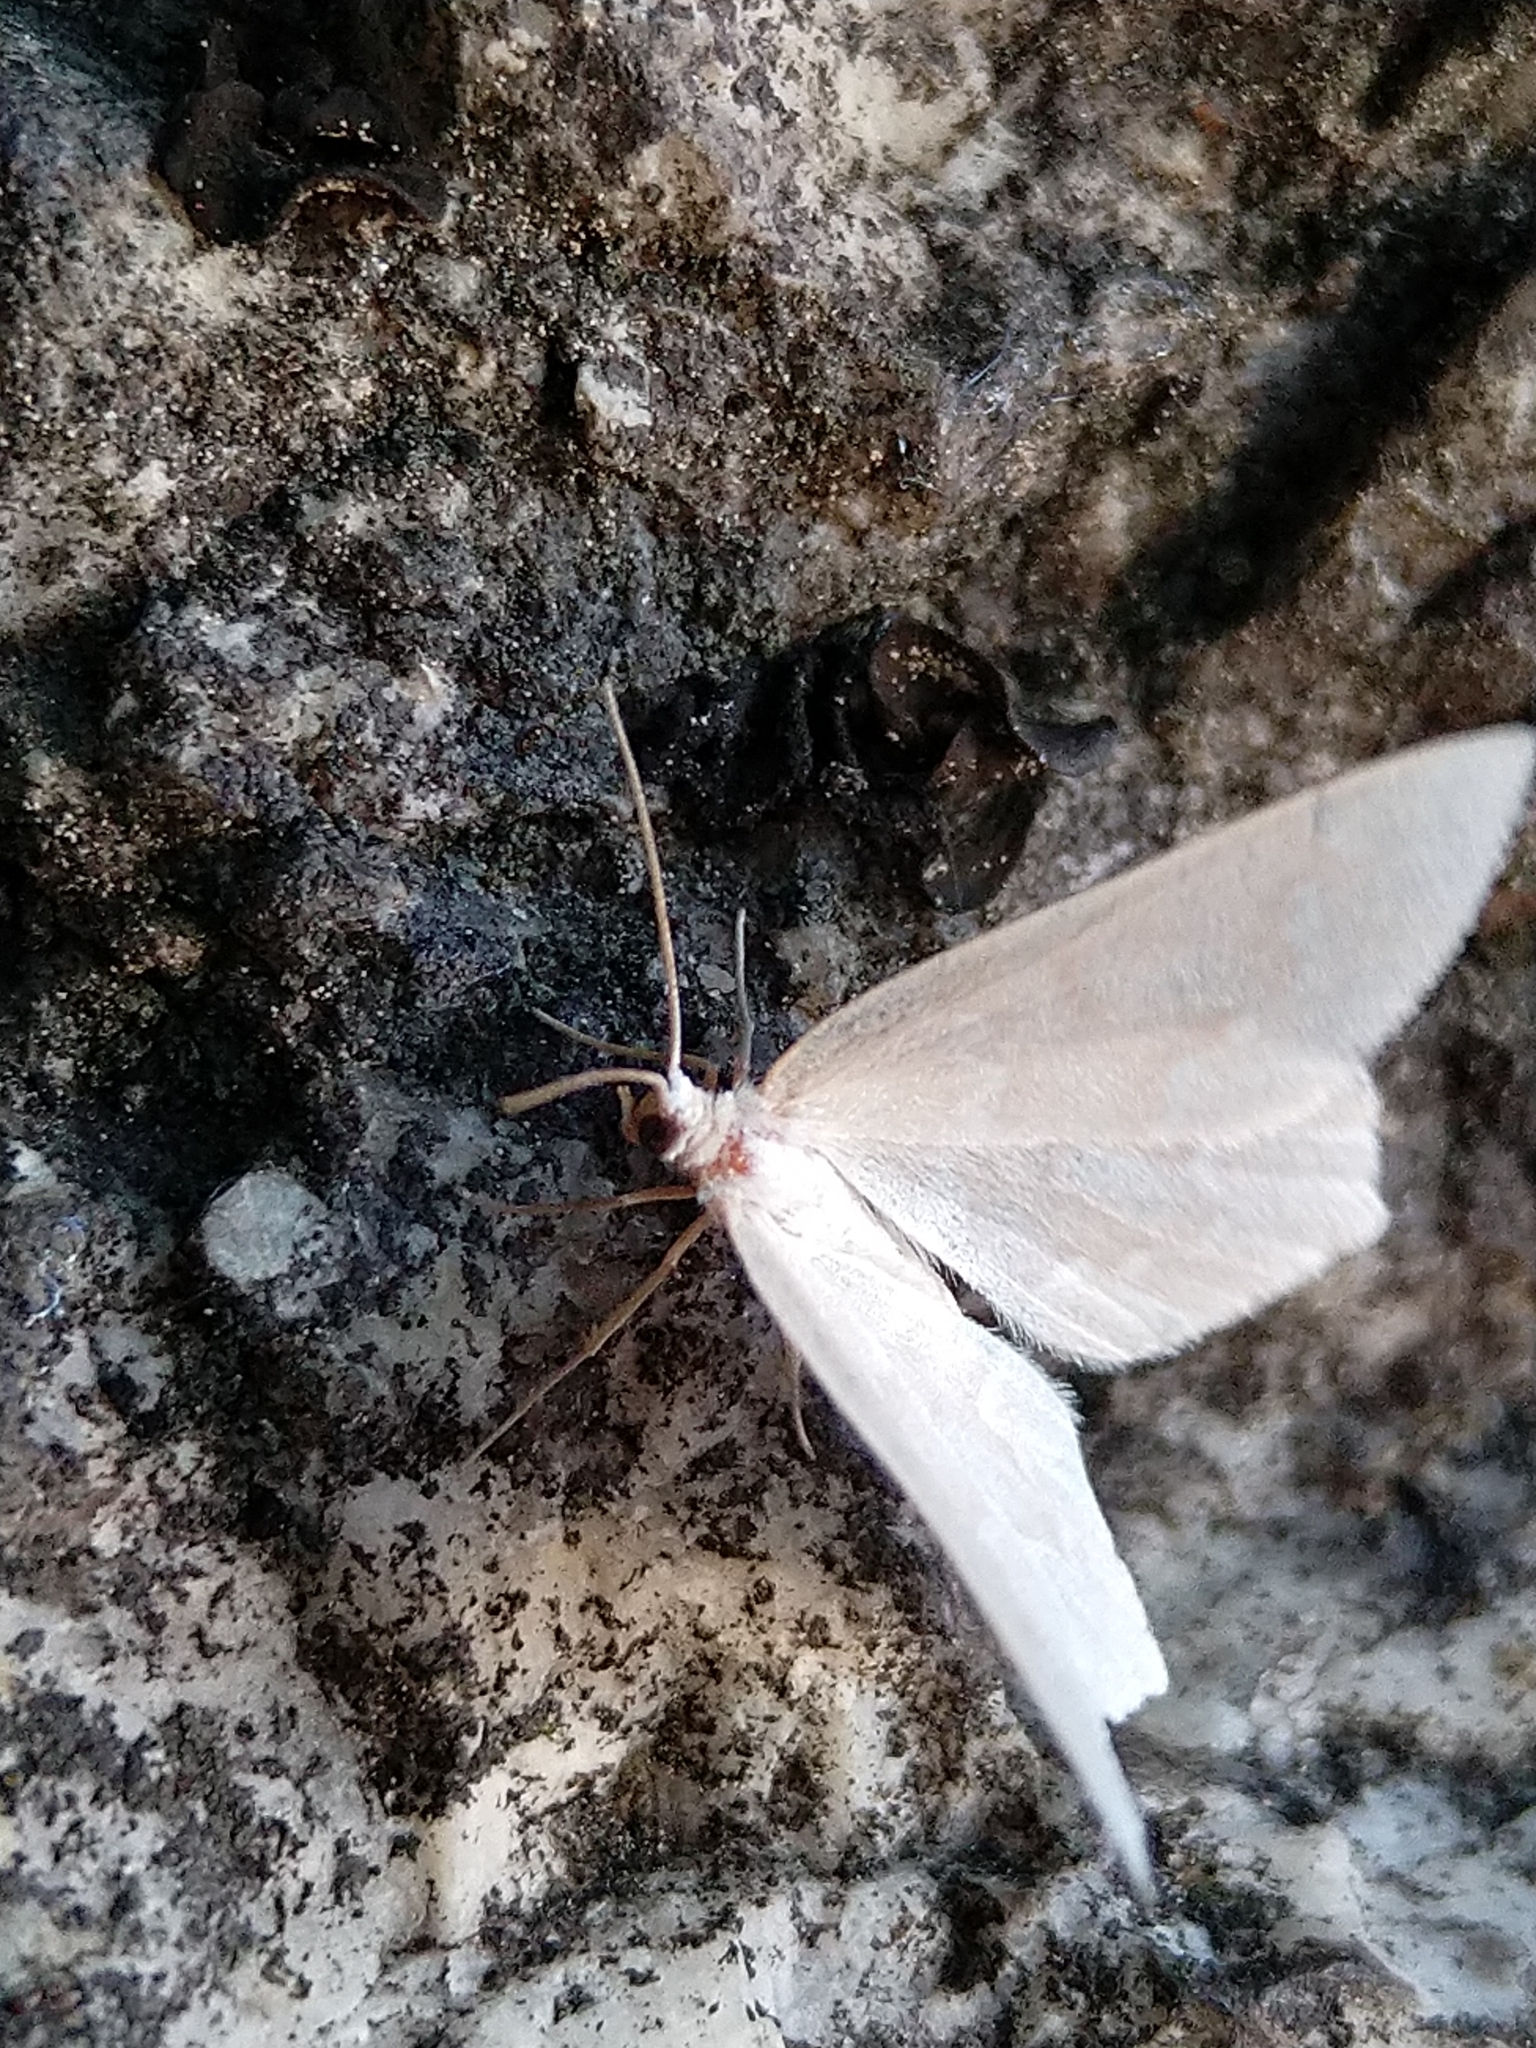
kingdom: Animalia
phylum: Arthropoda
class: Insecta
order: Lepidoptera
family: Geometridae
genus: Jodis
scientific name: Jodis putata
